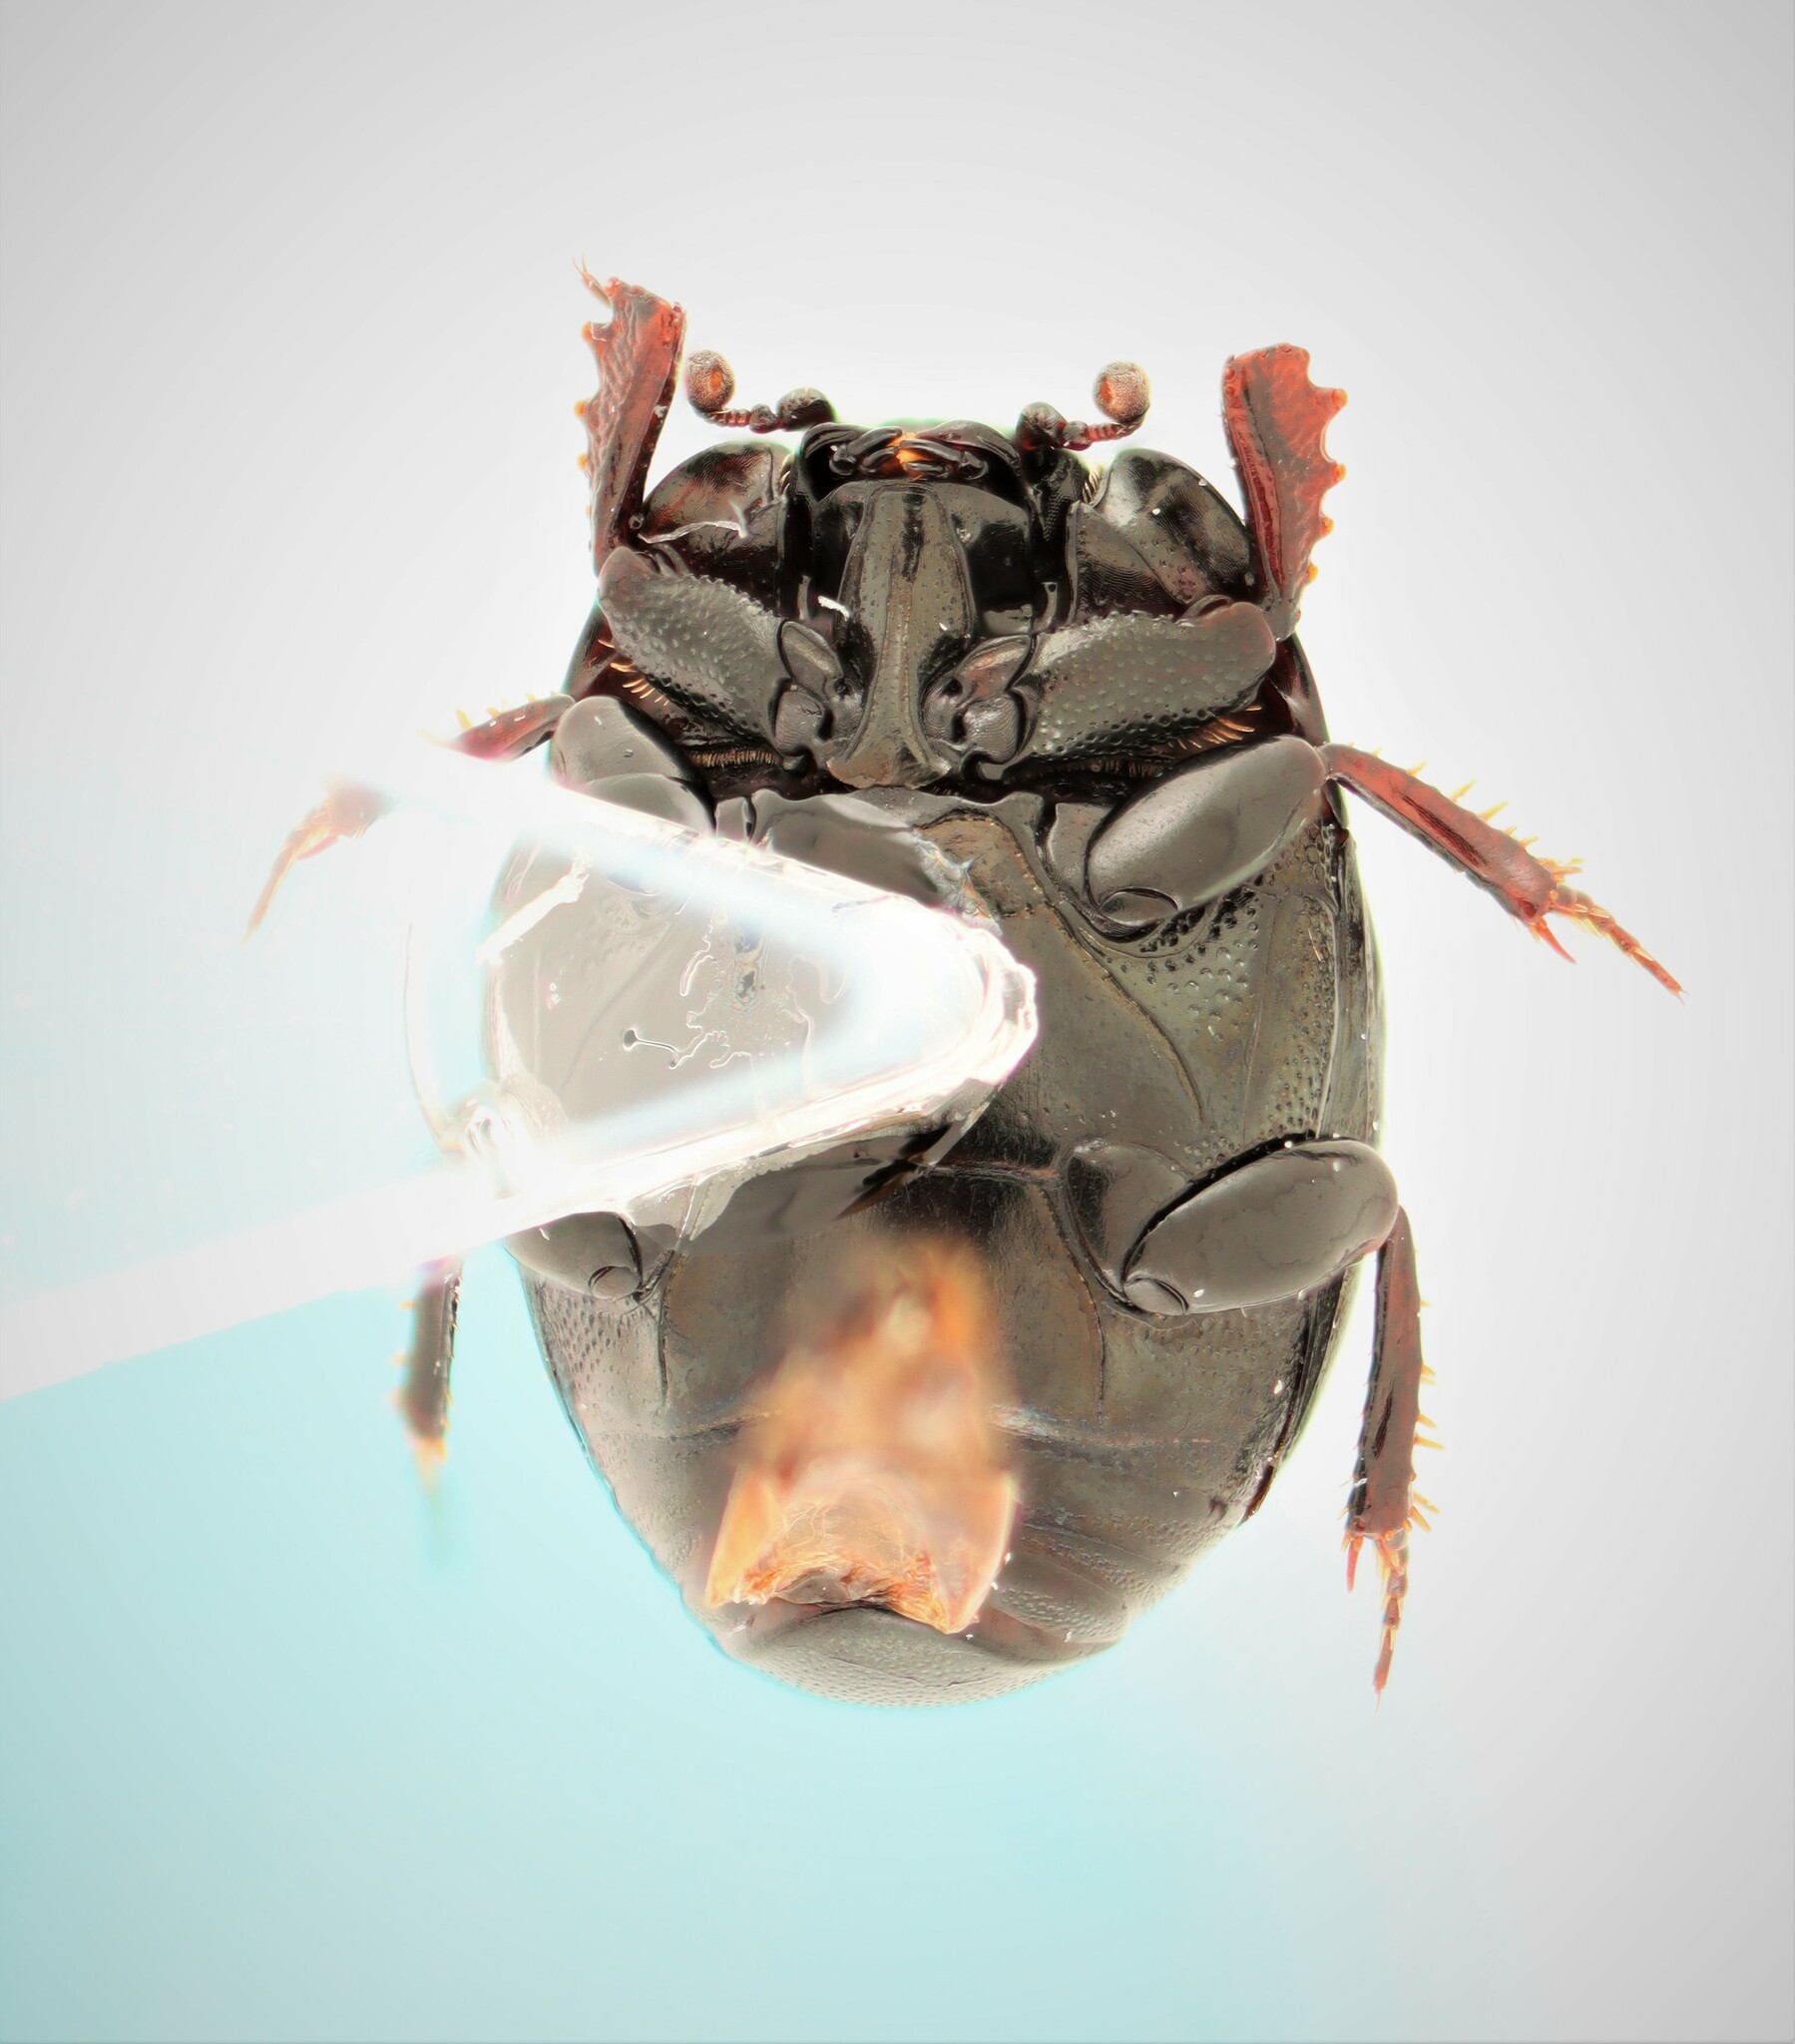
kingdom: Animalia
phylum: Arthropoda
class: Insecta
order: Coleoptera
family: Histeridae
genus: Hypocaccus
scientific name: Hypocaccus fraternus
